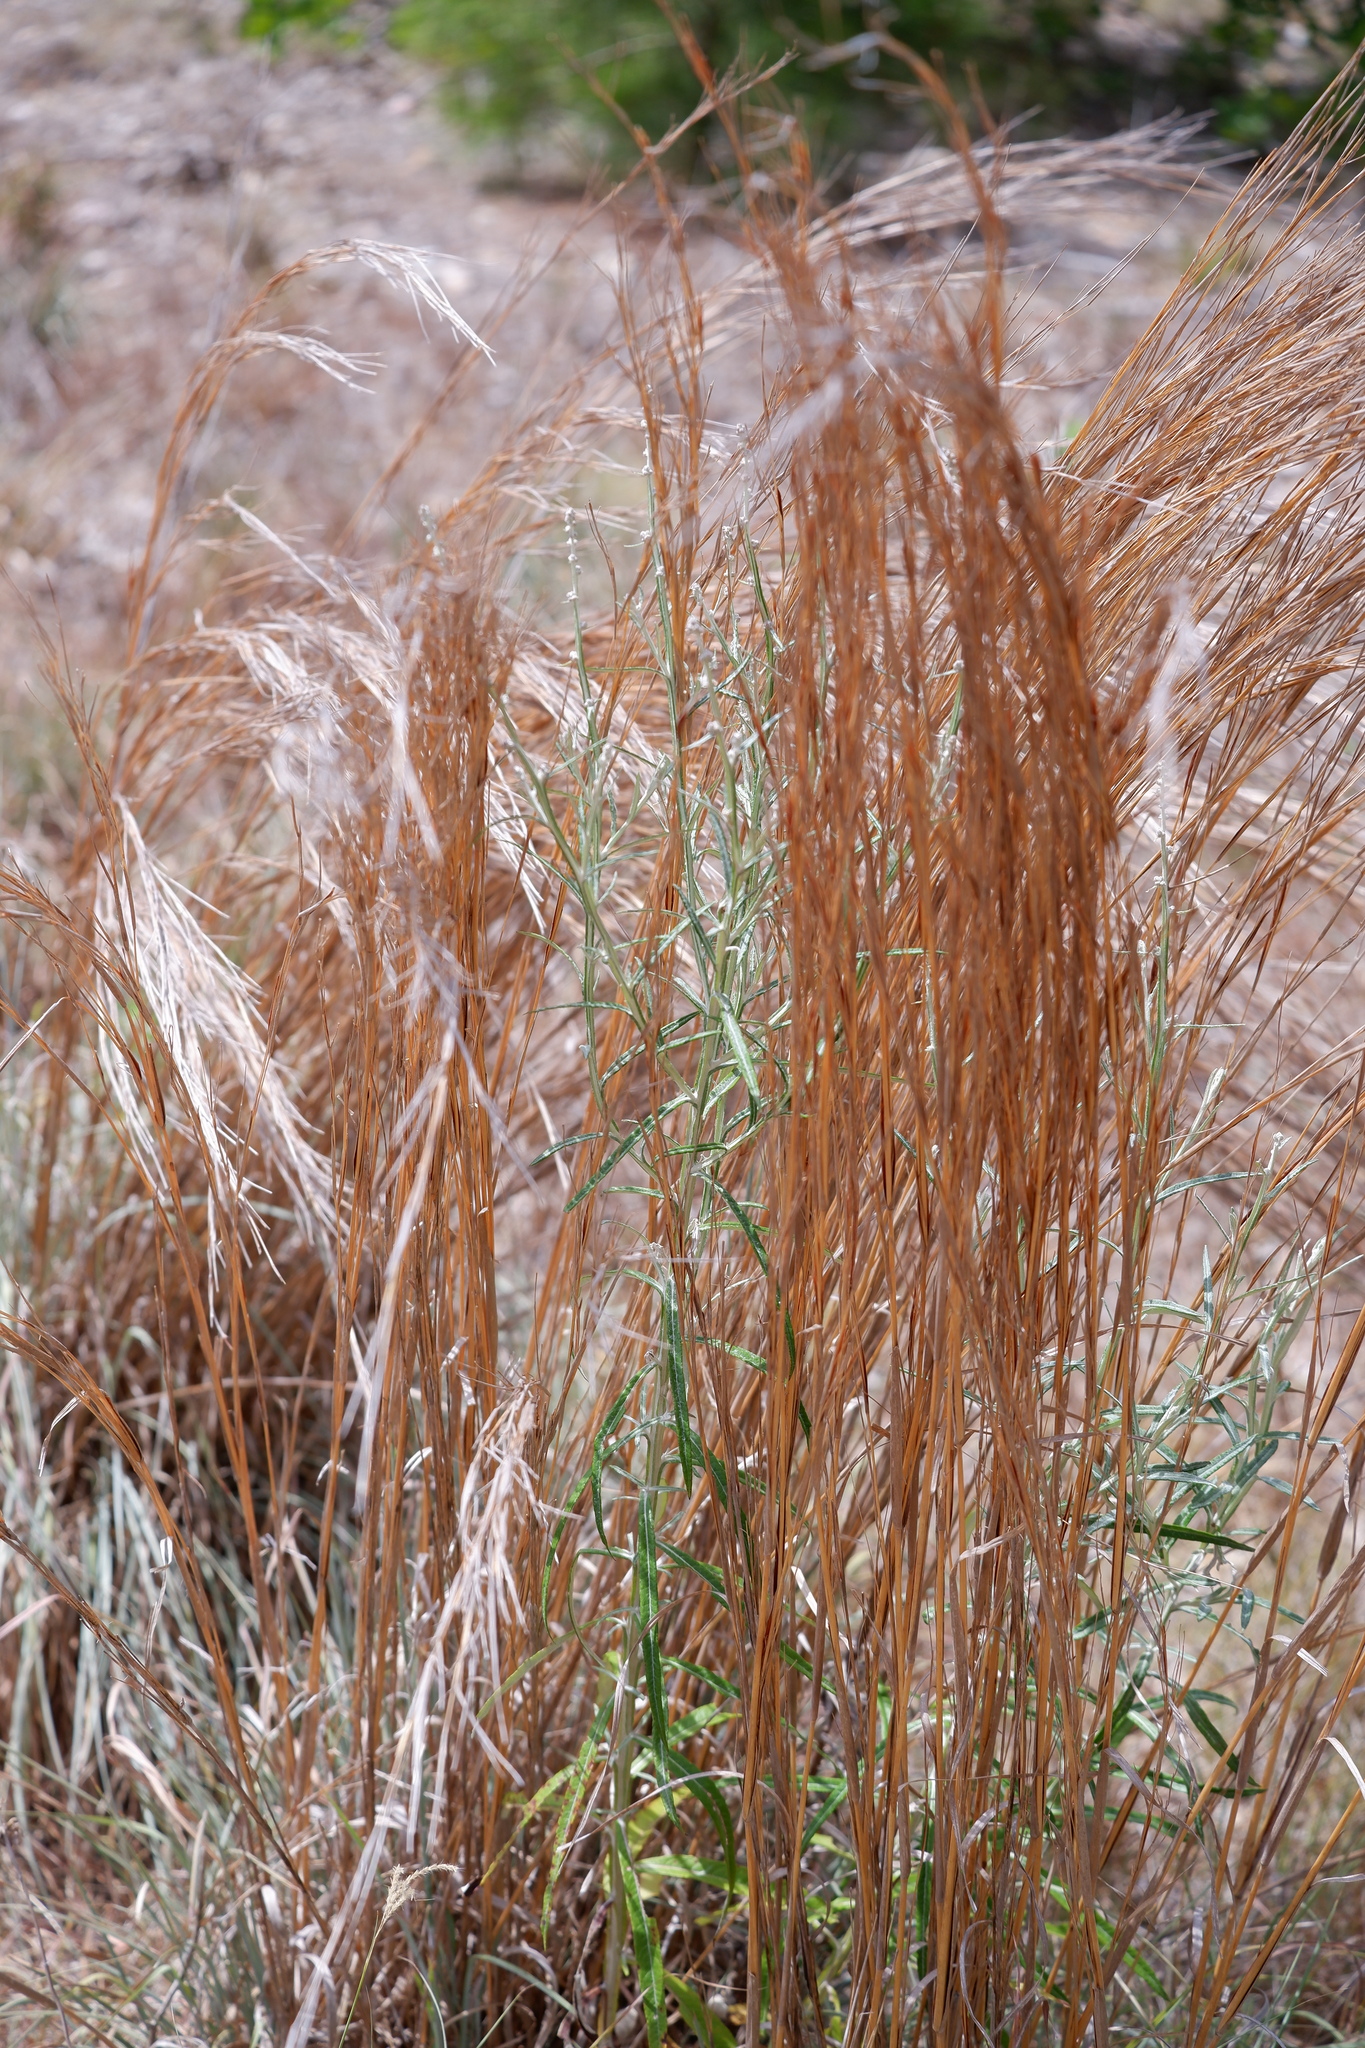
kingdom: Plantae
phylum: Tracheophyta
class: Magnoliopsida
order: Asterales
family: Asteraceae
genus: Pterocaulon
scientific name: Pterocaulon virgatum
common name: Wand blackroot
